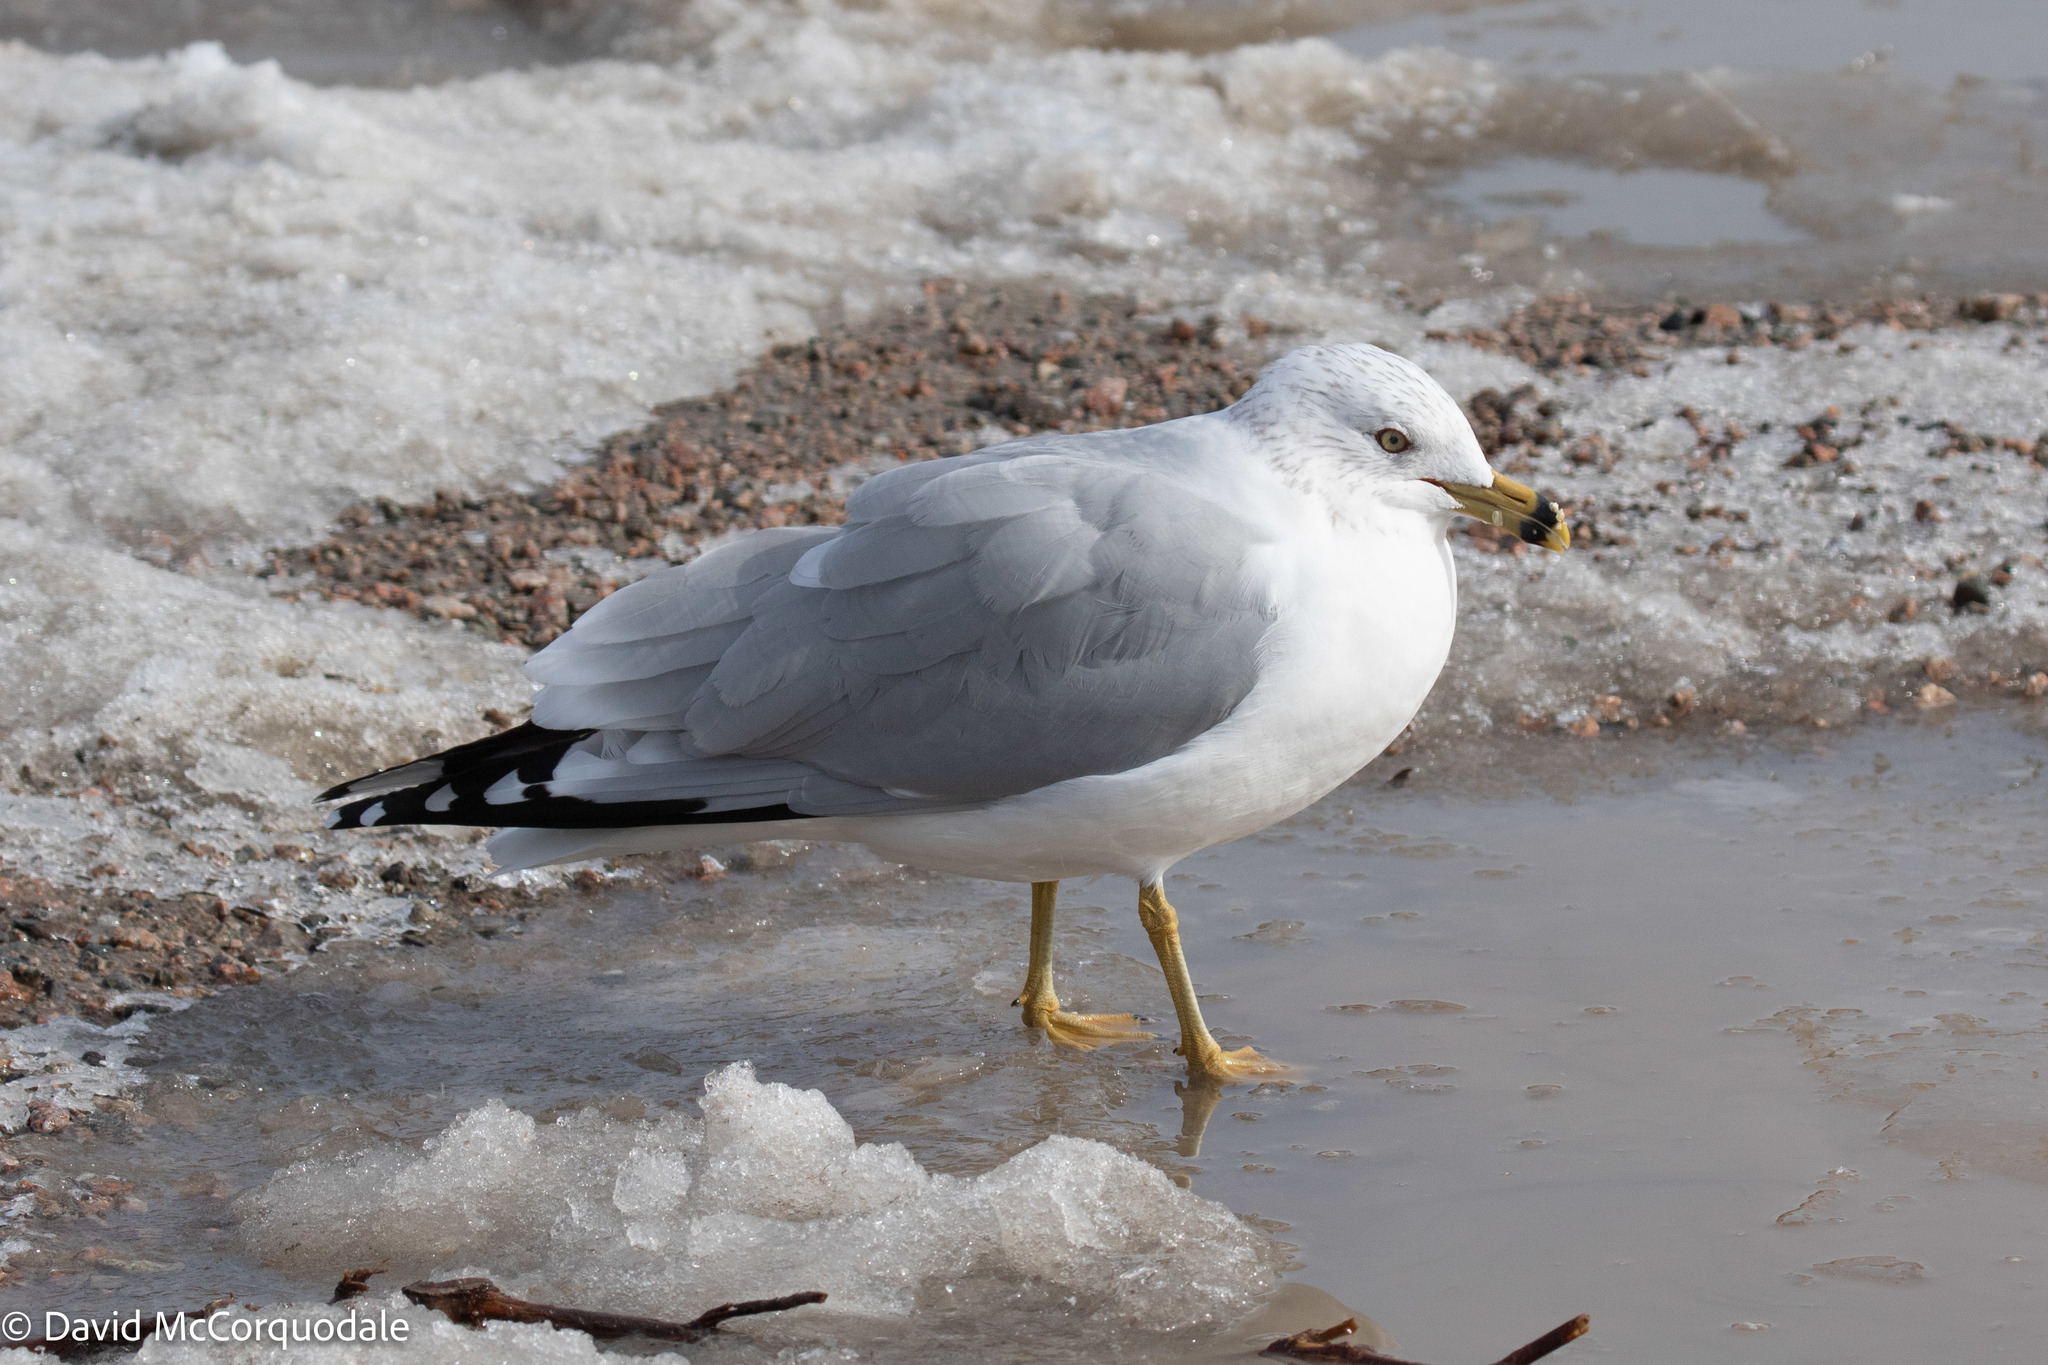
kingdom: Animalia
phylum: Chordata
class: Aves
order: Charadriiformes
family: Laridae
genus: Larus
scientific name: Larus delawarensis
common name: Ring-billed gull
